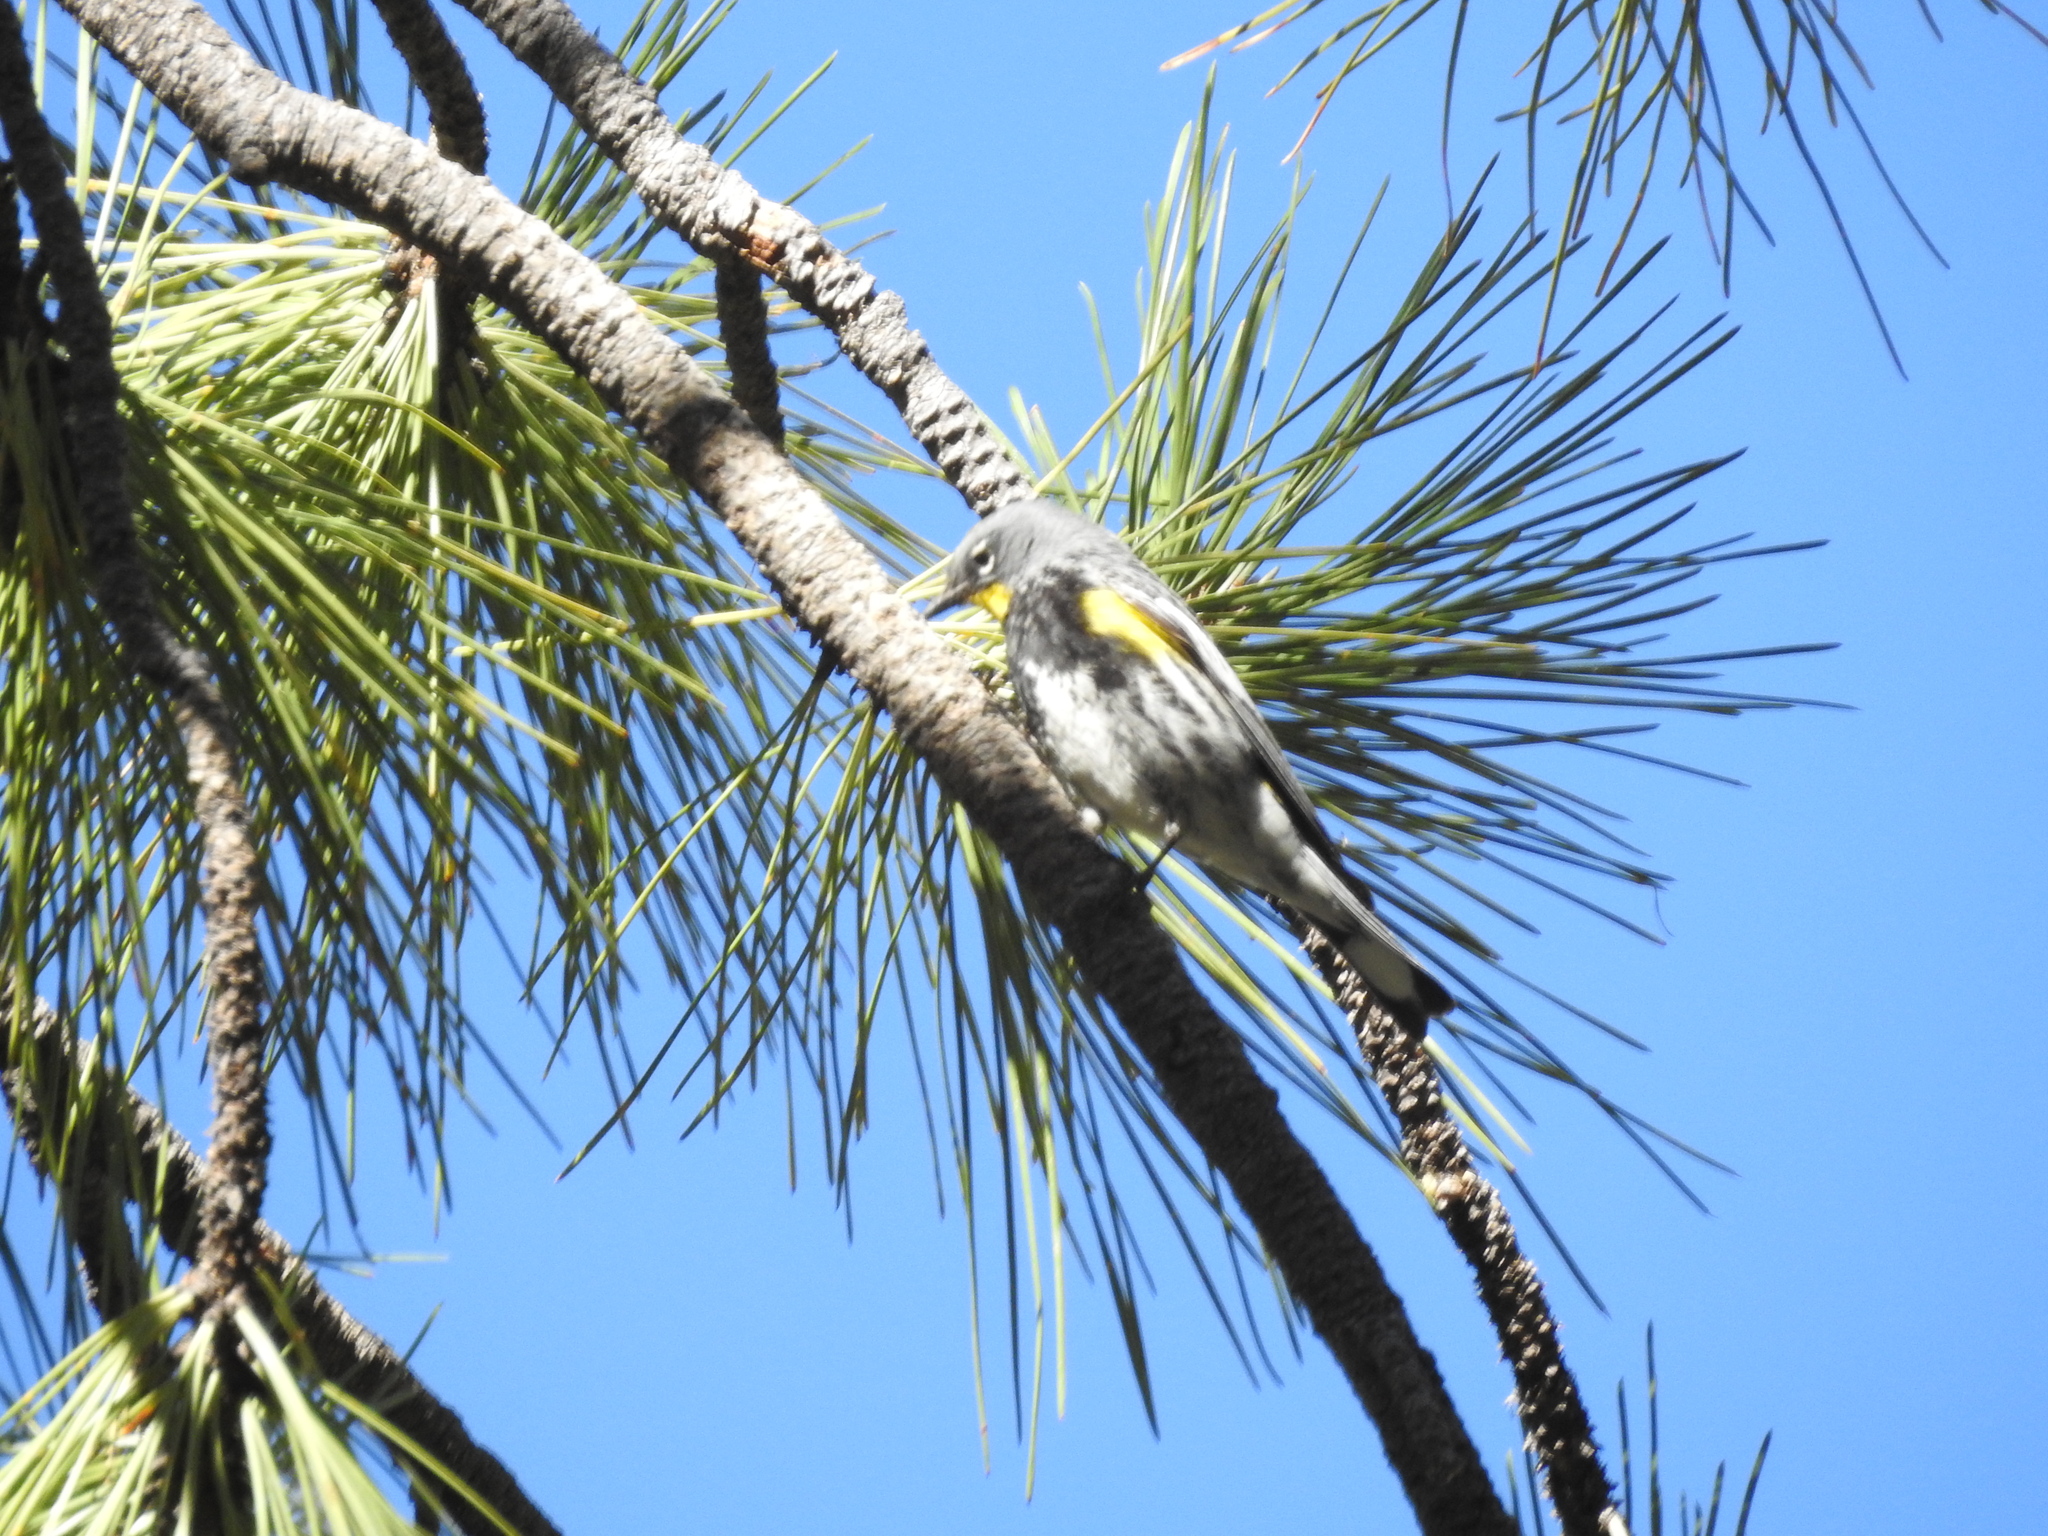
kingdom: Animalia
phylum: Chordata
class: Aves
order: Passeriformes
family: Parulidae
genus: Setophaga
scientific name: Setophaga coronata
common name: Myrtle warbler
